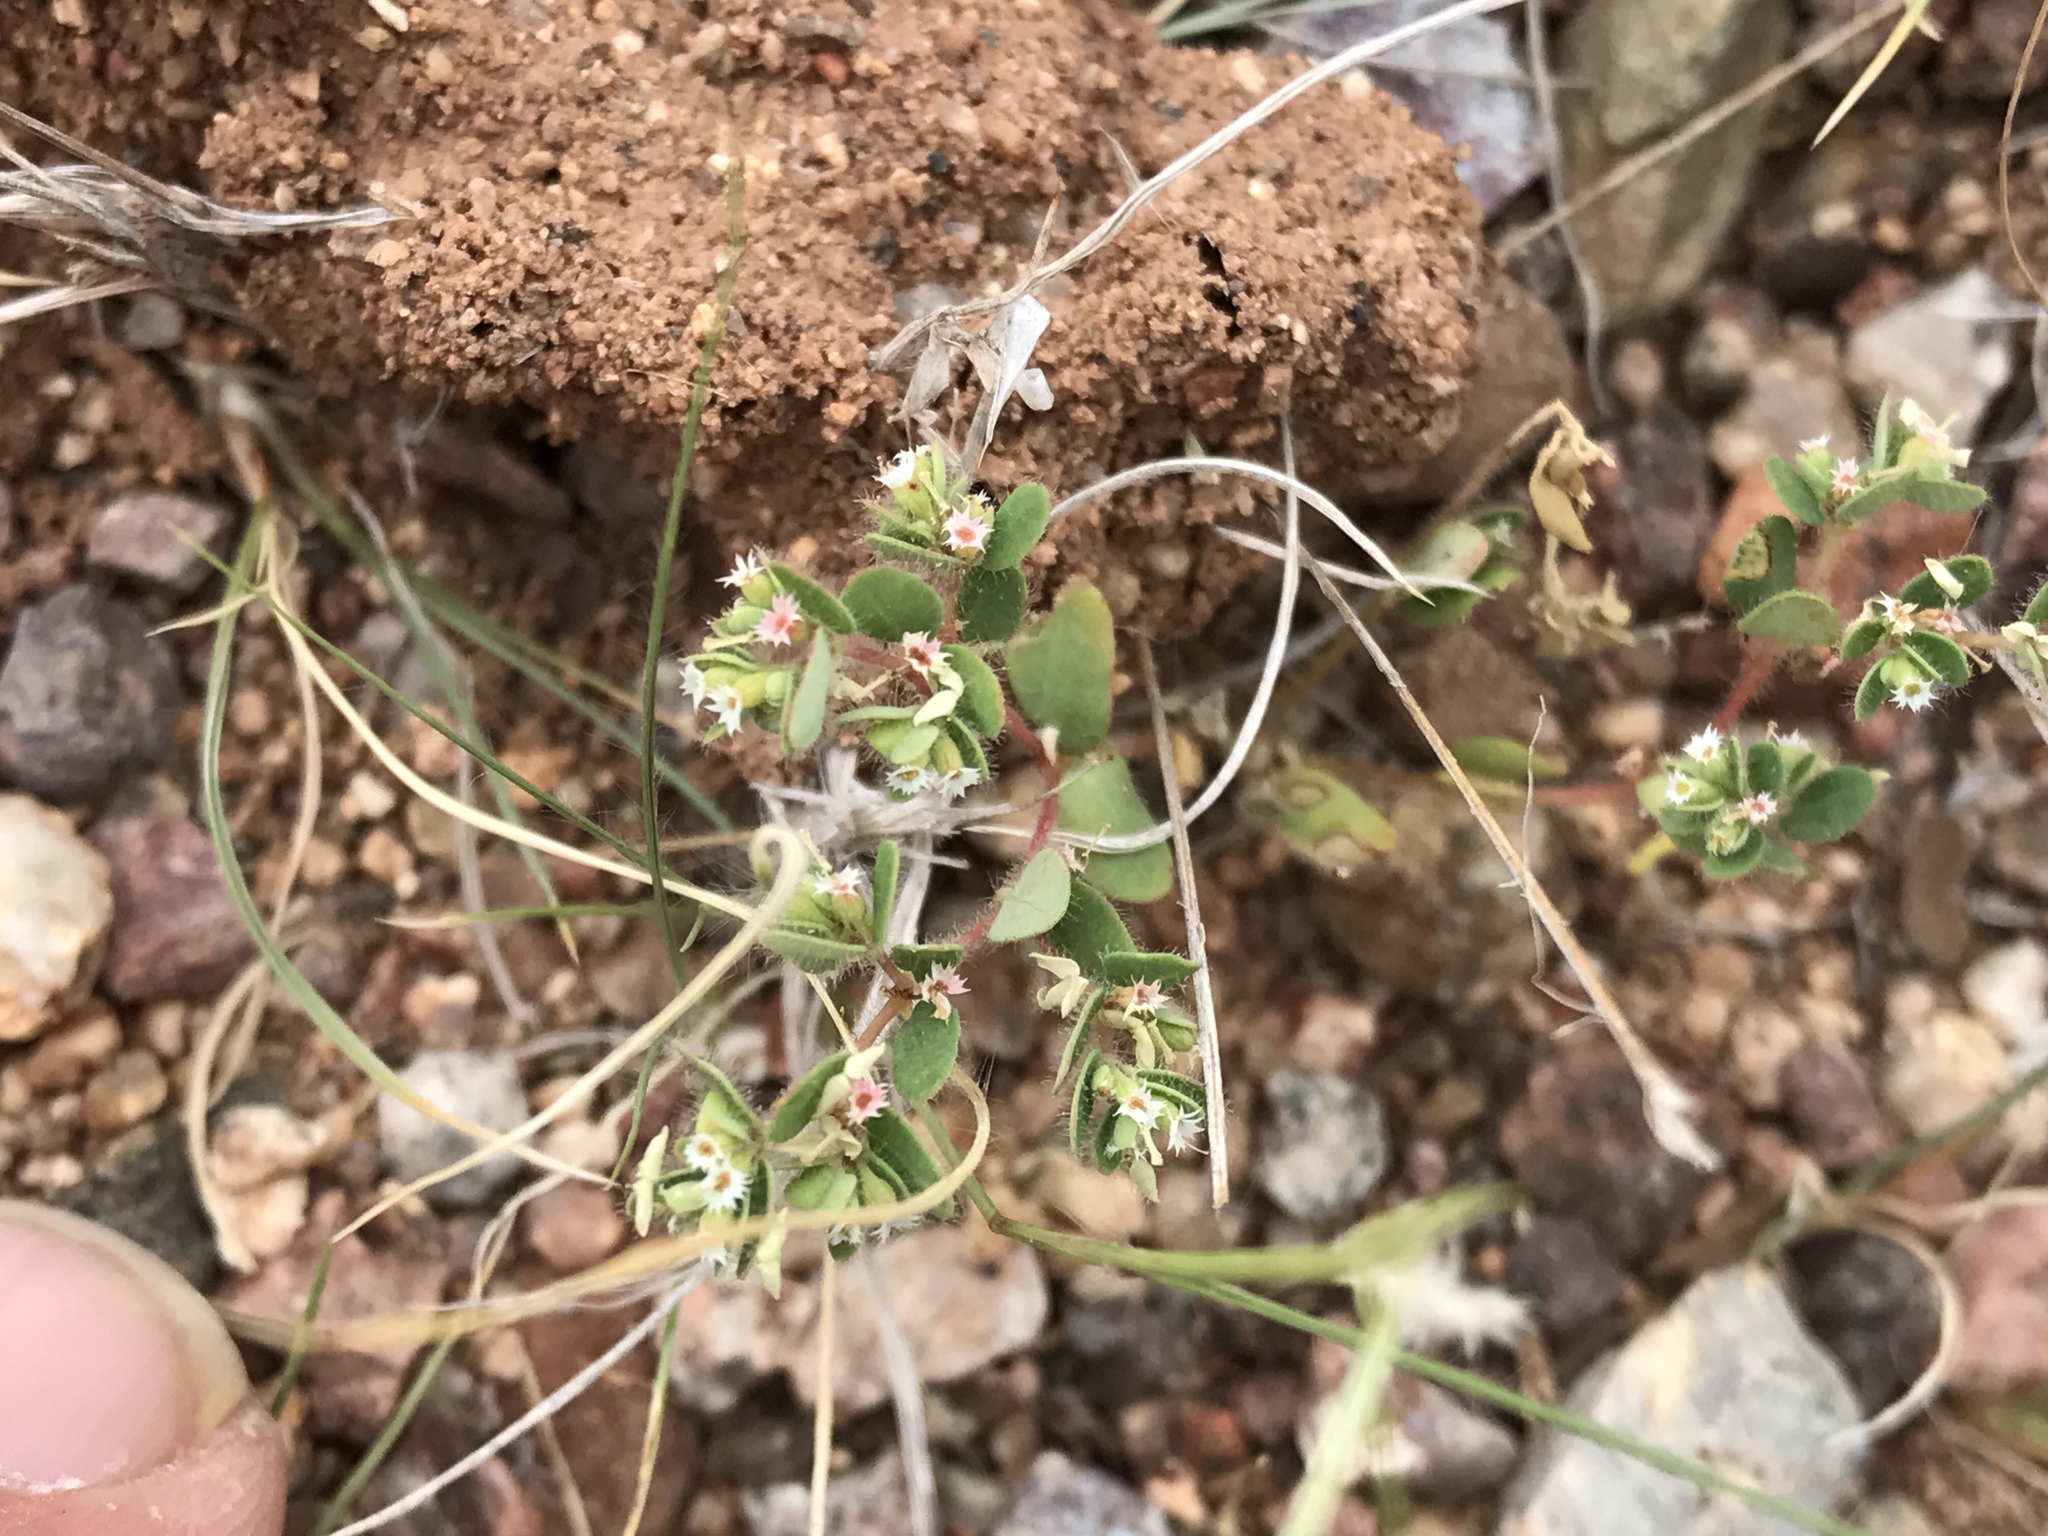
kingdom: Plantae
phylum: Tracheophyta
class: Magnoliopsida
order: Malpighiales
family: Euphorbiaceae
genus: Euphorbia
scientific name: Euphorbia setiloba
